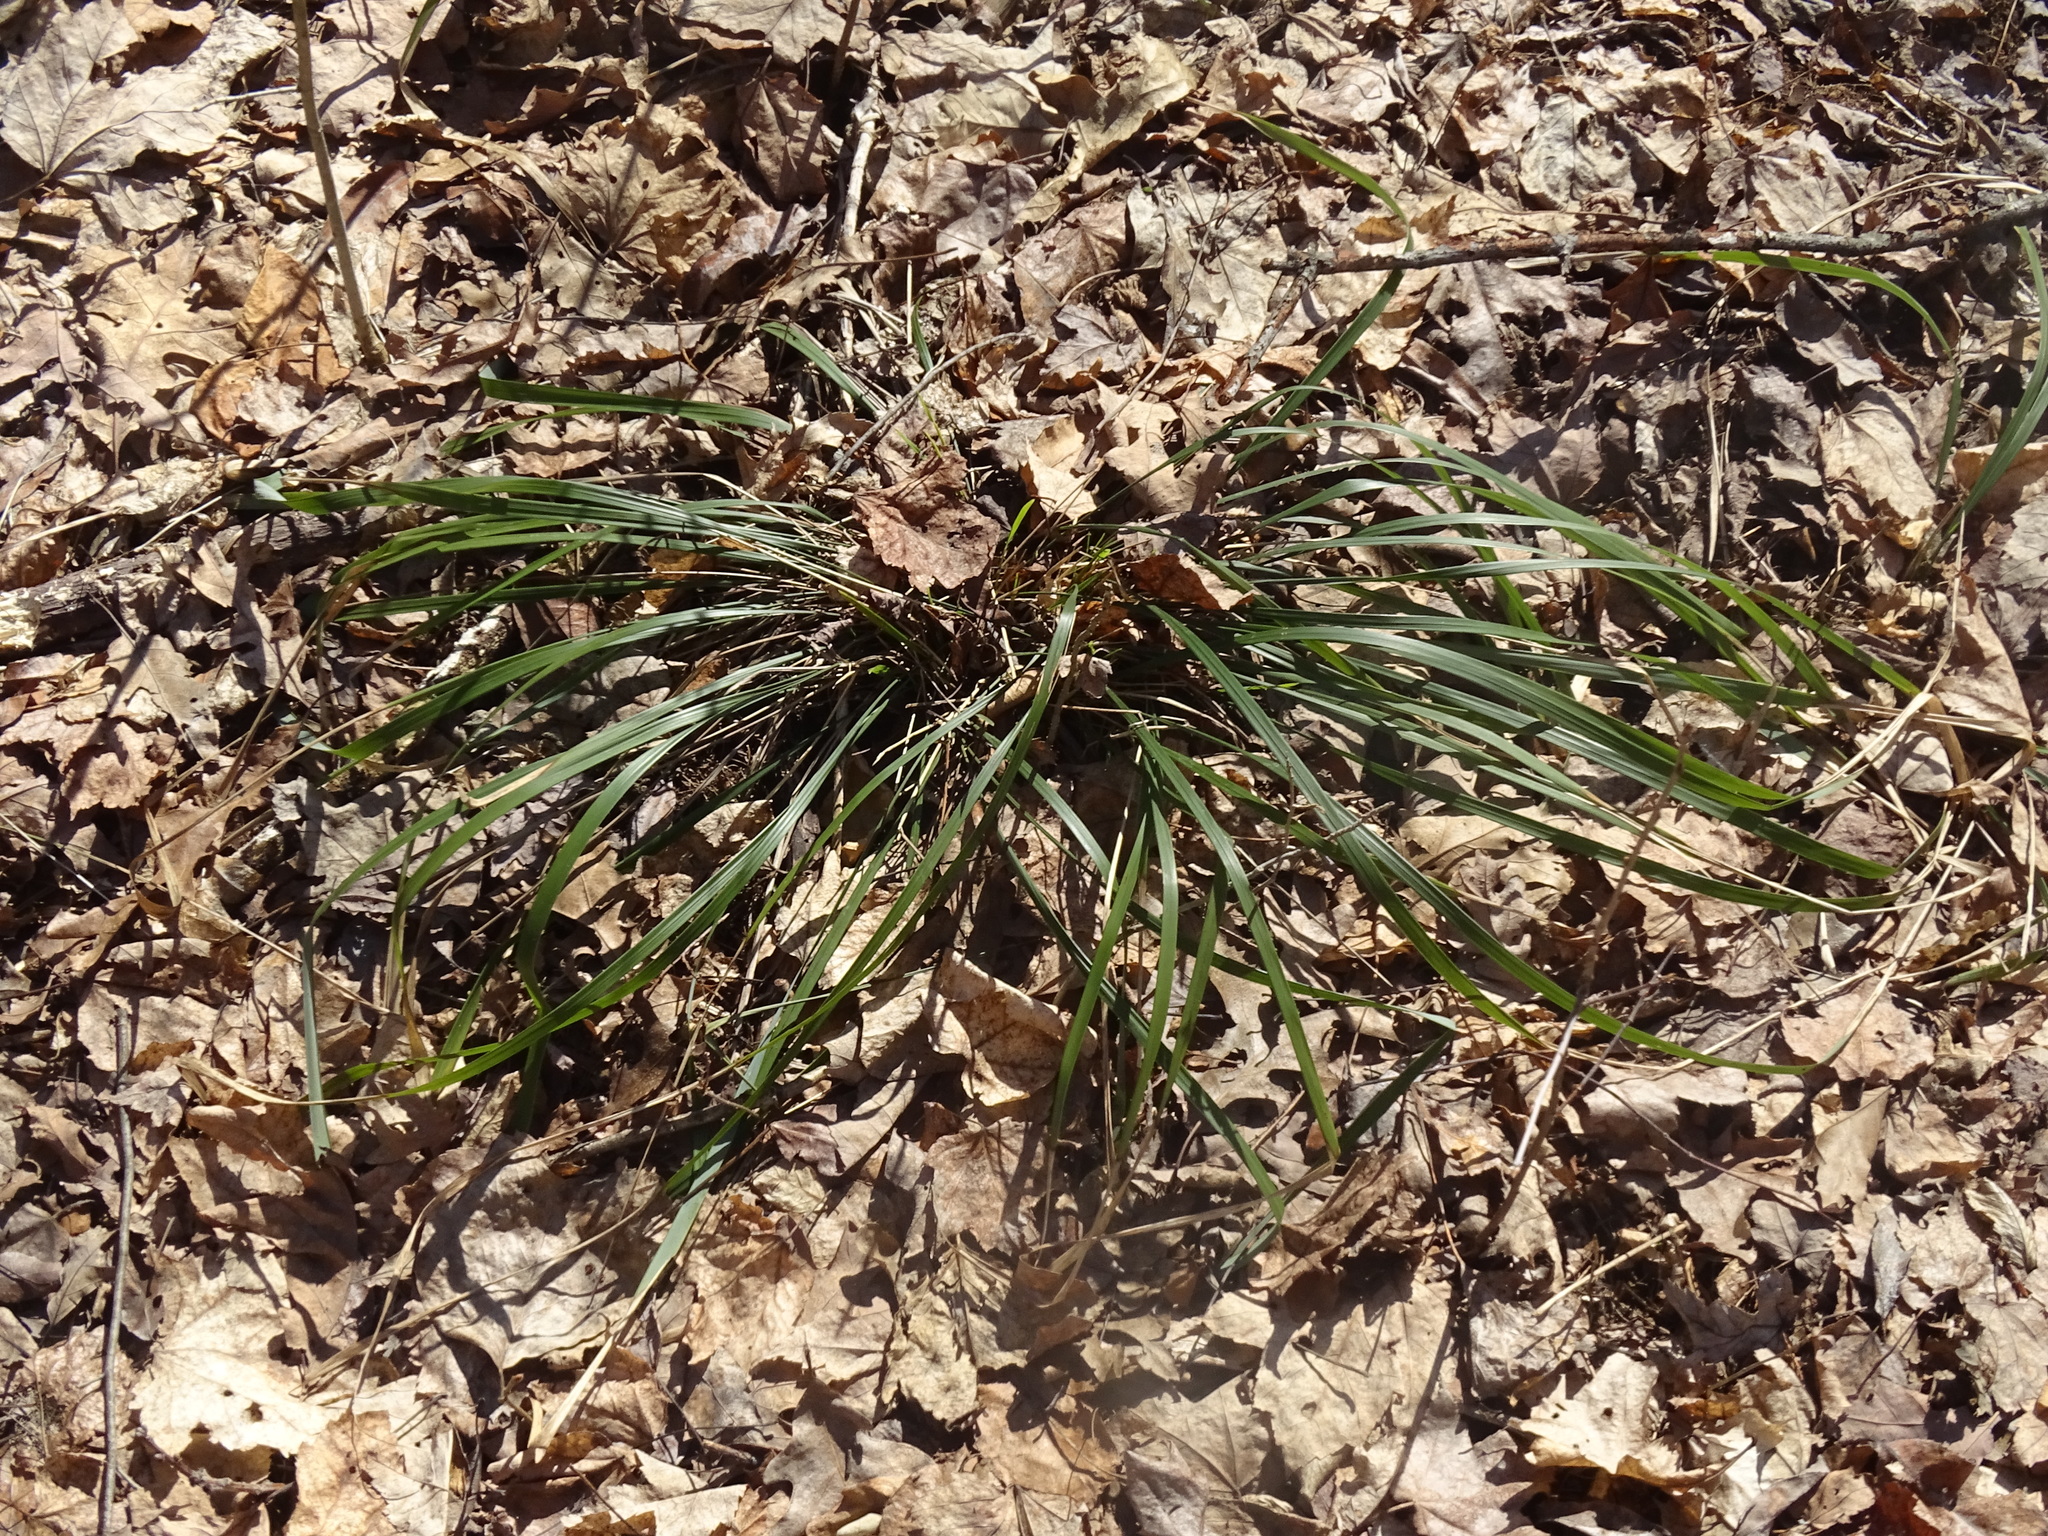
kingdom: Plantae
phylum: Tracheophyta
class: Liliopsida
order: Poales
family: Poaceae
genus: Oryzopsis
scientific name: Oryzopsis asperifolia
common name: Rough-leaved mountain rice
